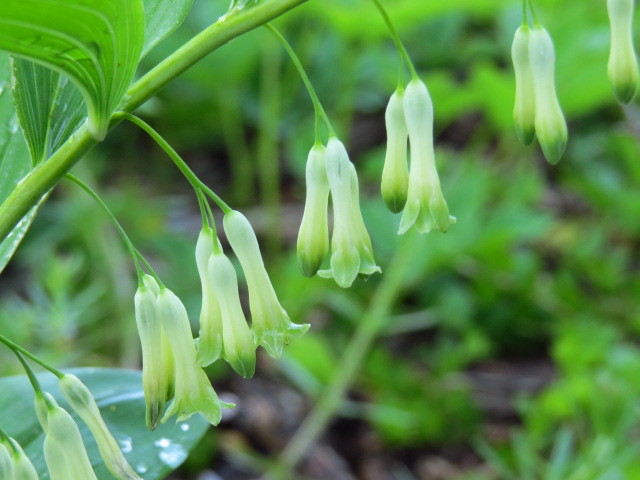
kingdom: Plantae
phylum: Tracheophyta
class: Liliopsida
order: Asparagales
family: Asparagaceae
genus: Polygonatum
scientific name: Polygonatum multiflorum
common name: Solomon's-seal
